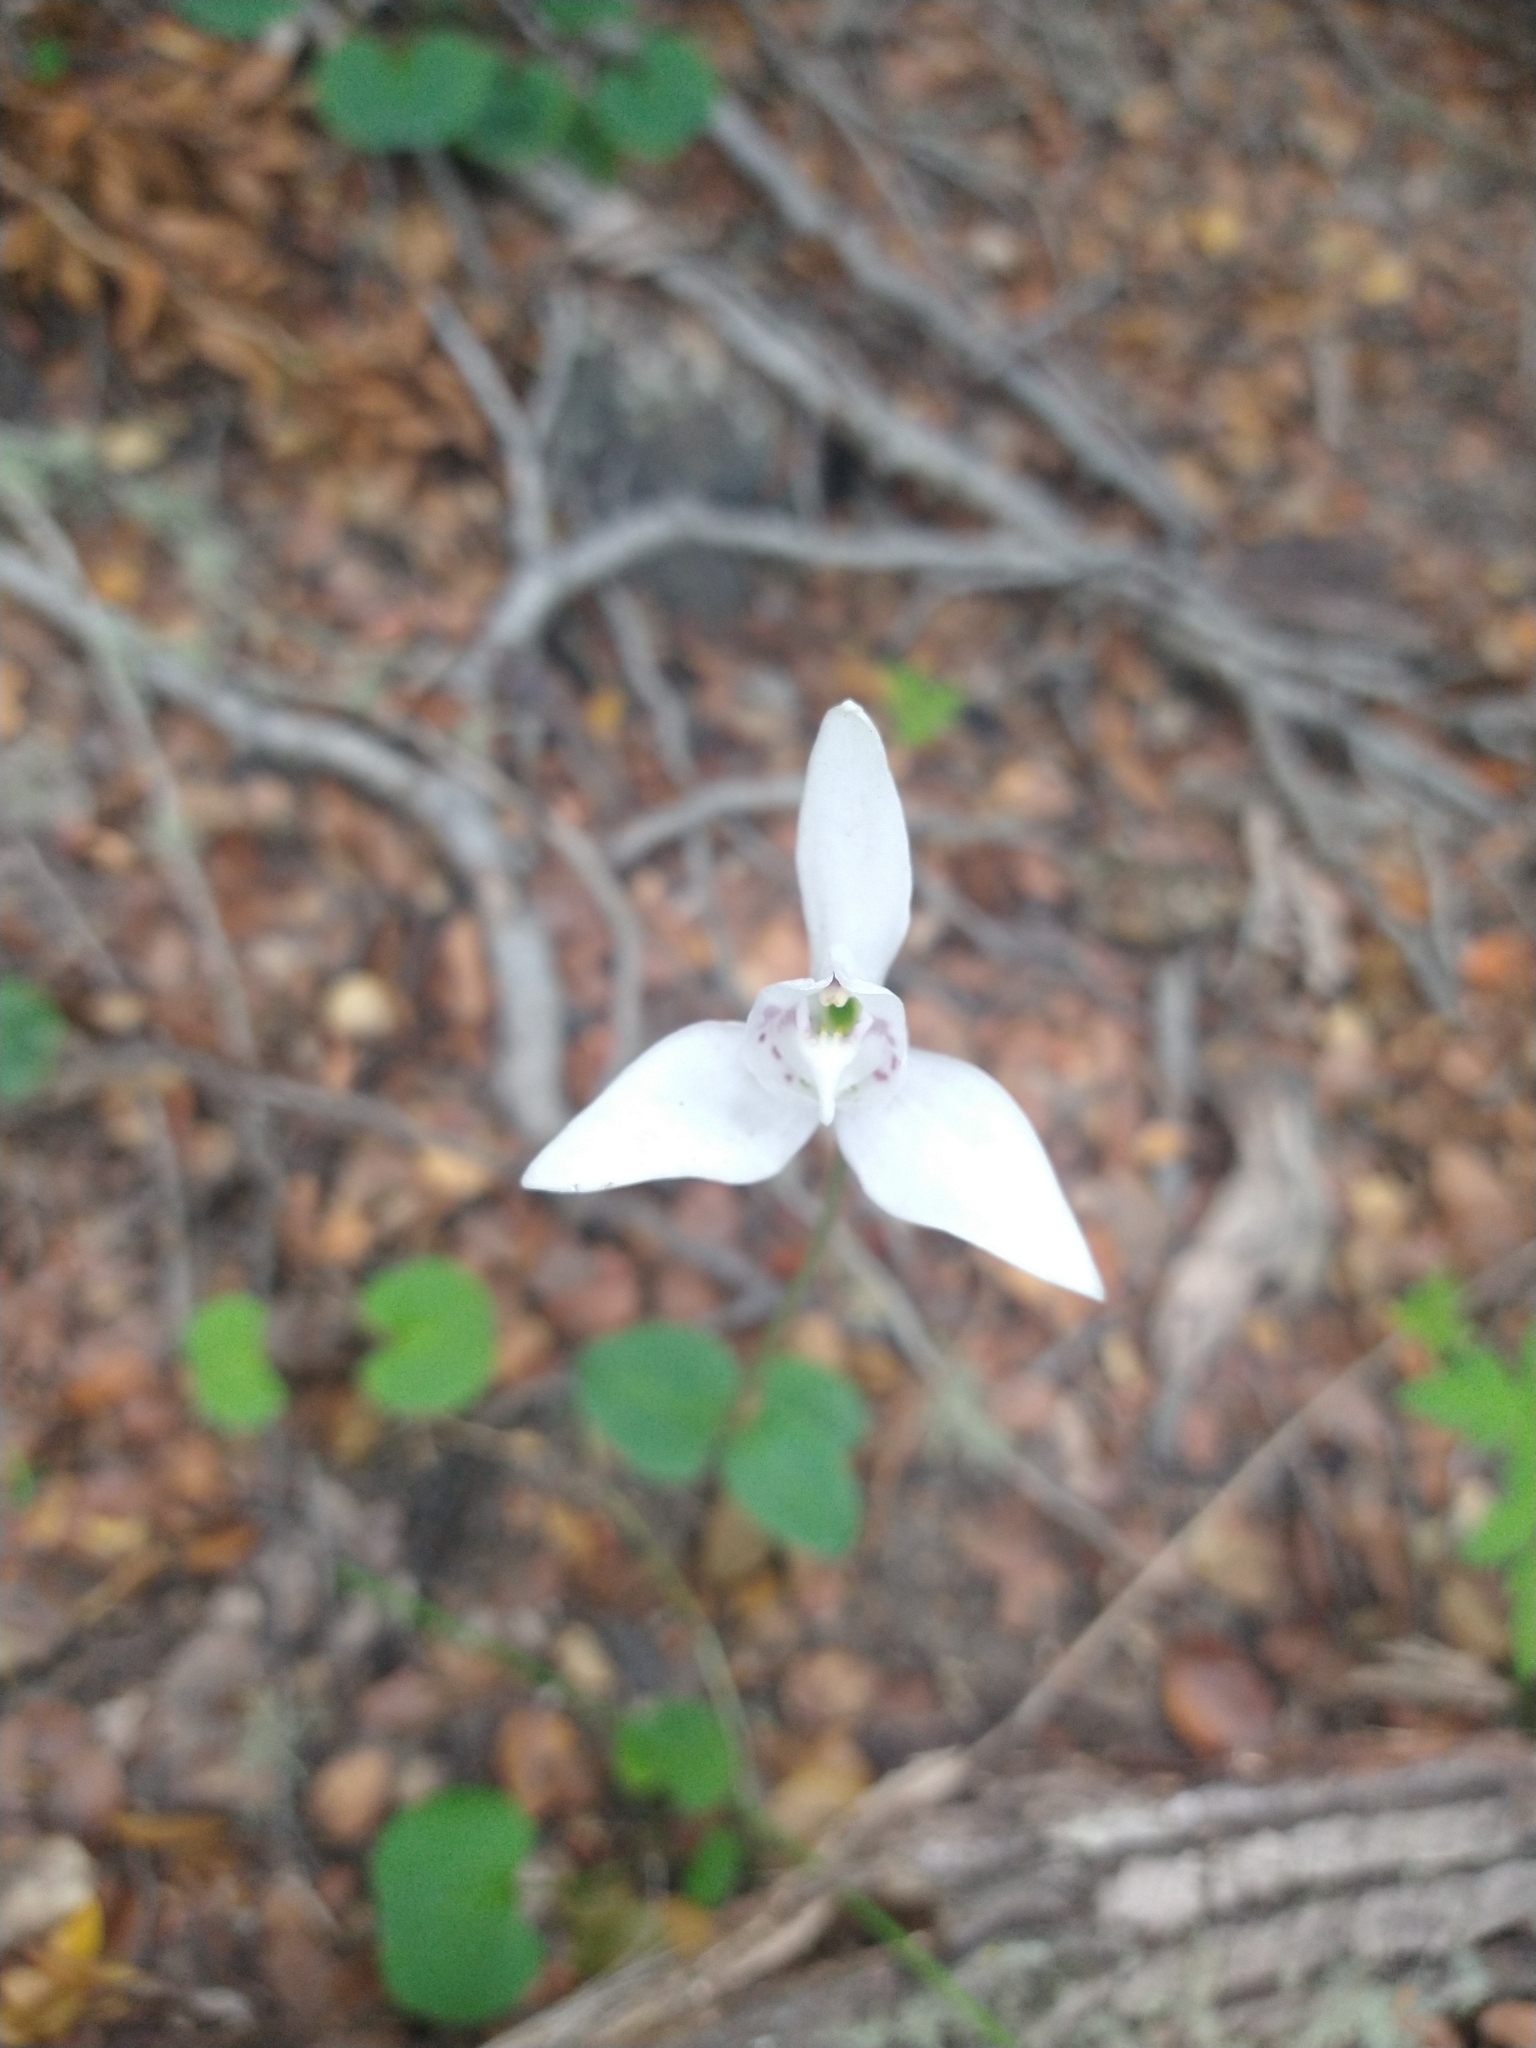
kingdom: Plantae
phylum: Tracheophyta
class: Liliopsida
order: Asparagales
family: Orchidaceae
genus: Codonorchis
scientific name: Codonorchis lessonii
